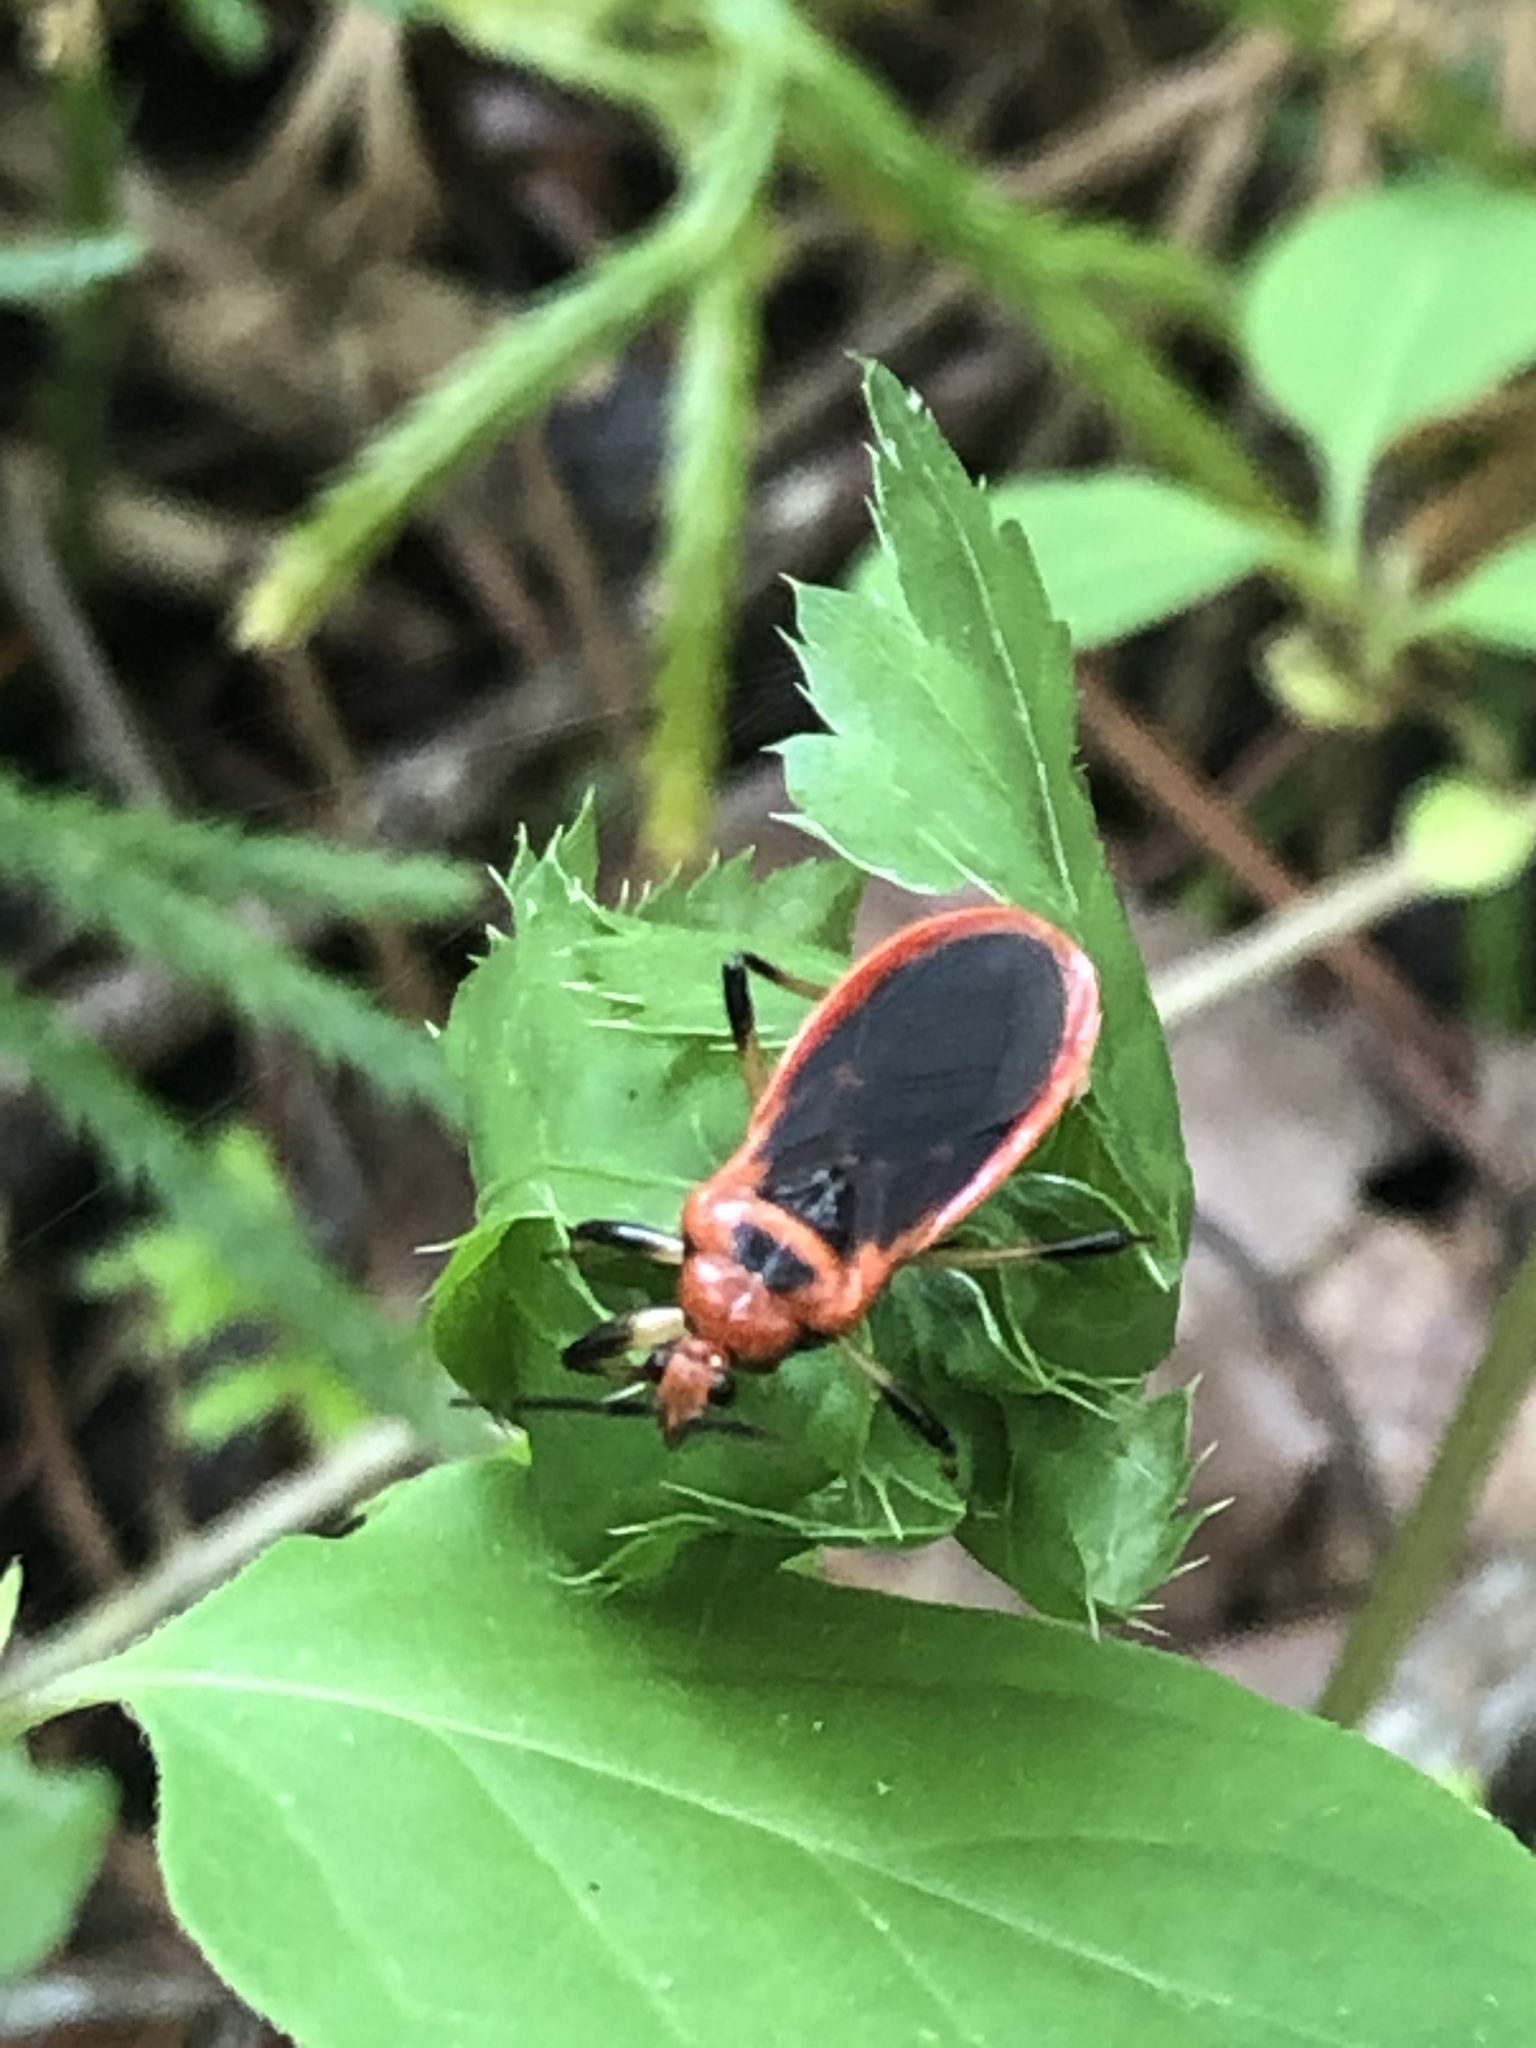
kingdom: Animalia
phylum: Arthropoda
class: Insecta
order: Hemiptera
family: Reduviidae
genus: Rhiginia
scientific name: Rhiginia cruciata
